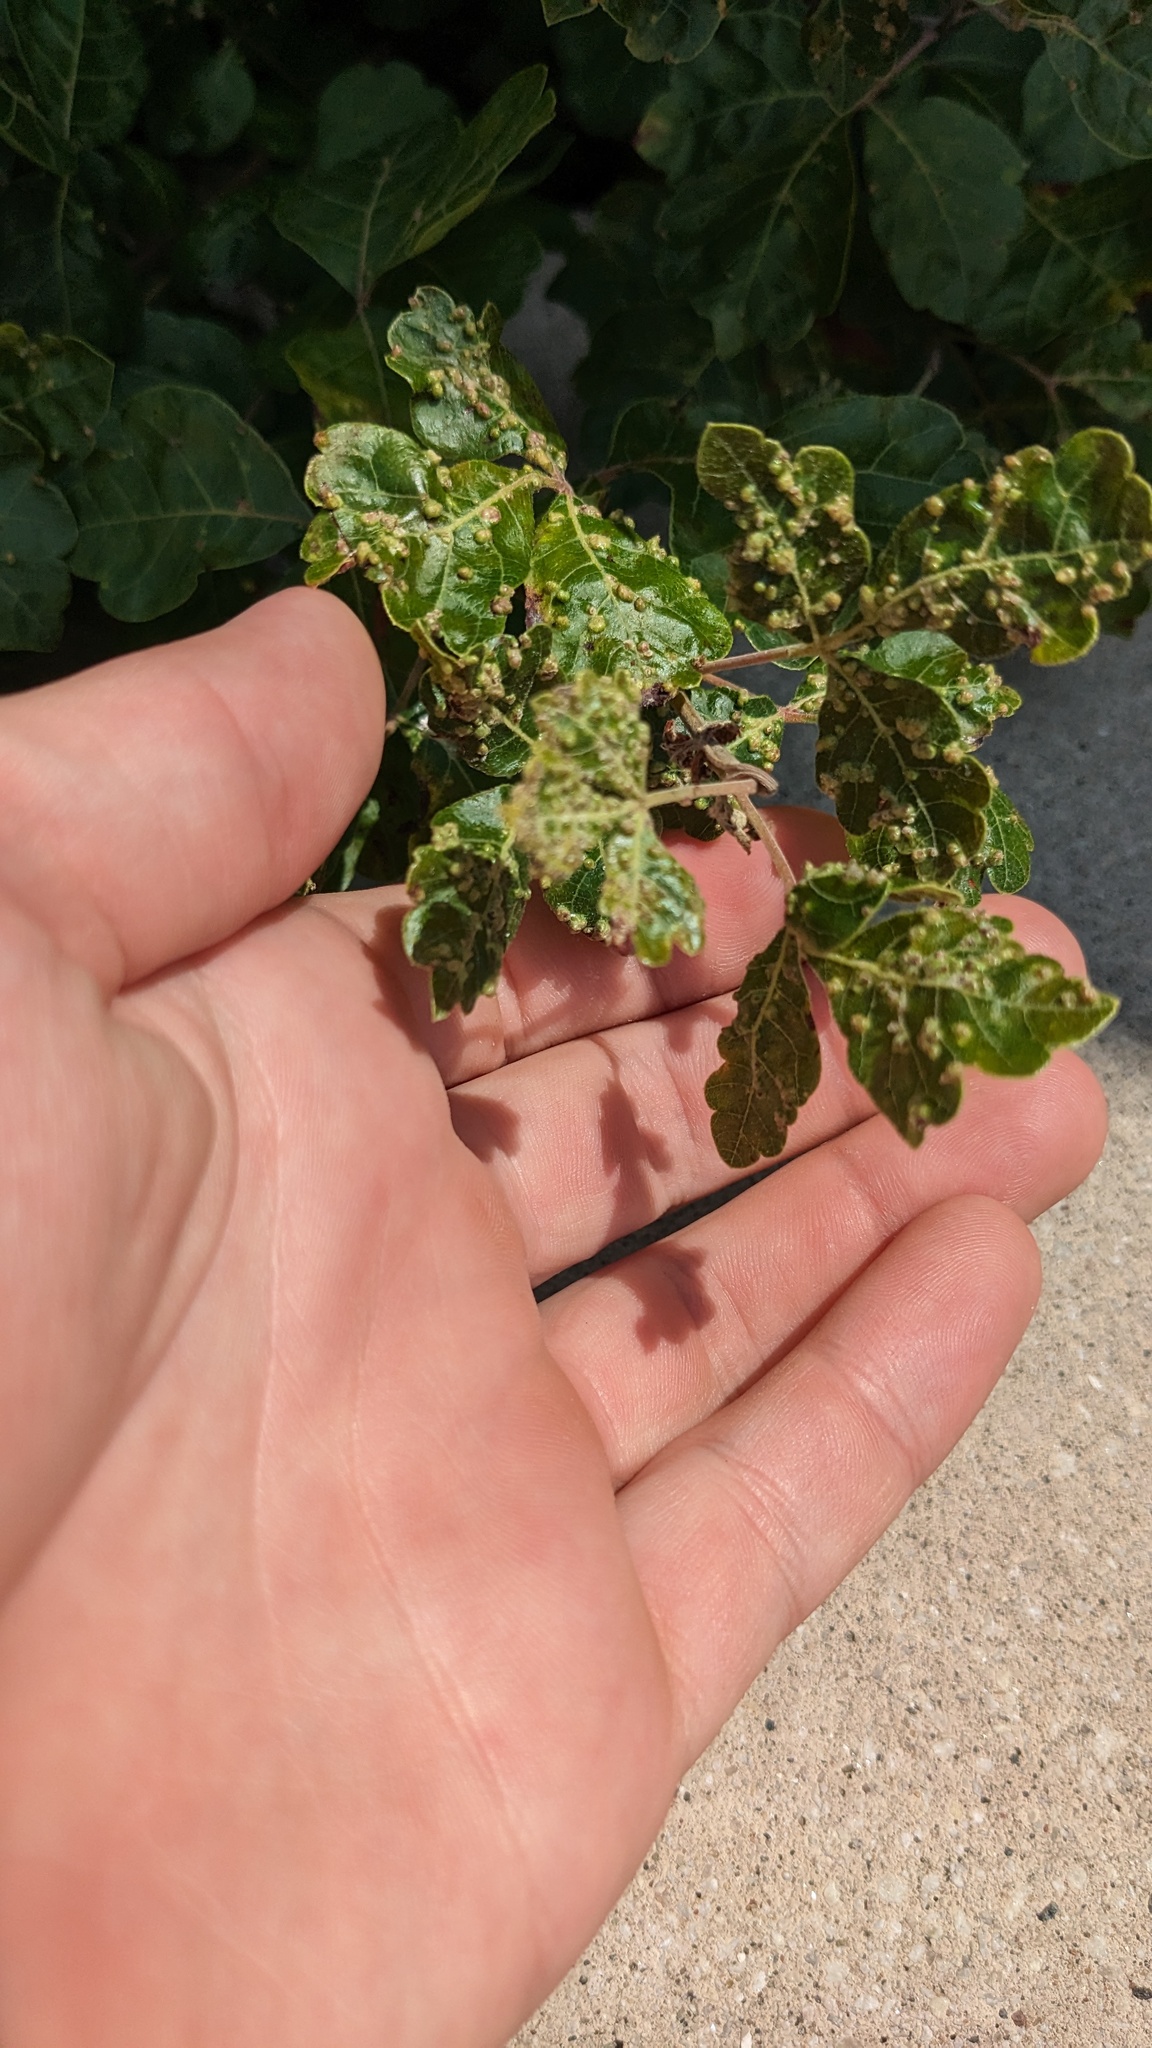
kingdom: Animalia
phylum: Arthropoda
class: Arachnida
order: Trombidiformes
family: Eriophyidae
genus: Aculops
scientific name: Aculops
